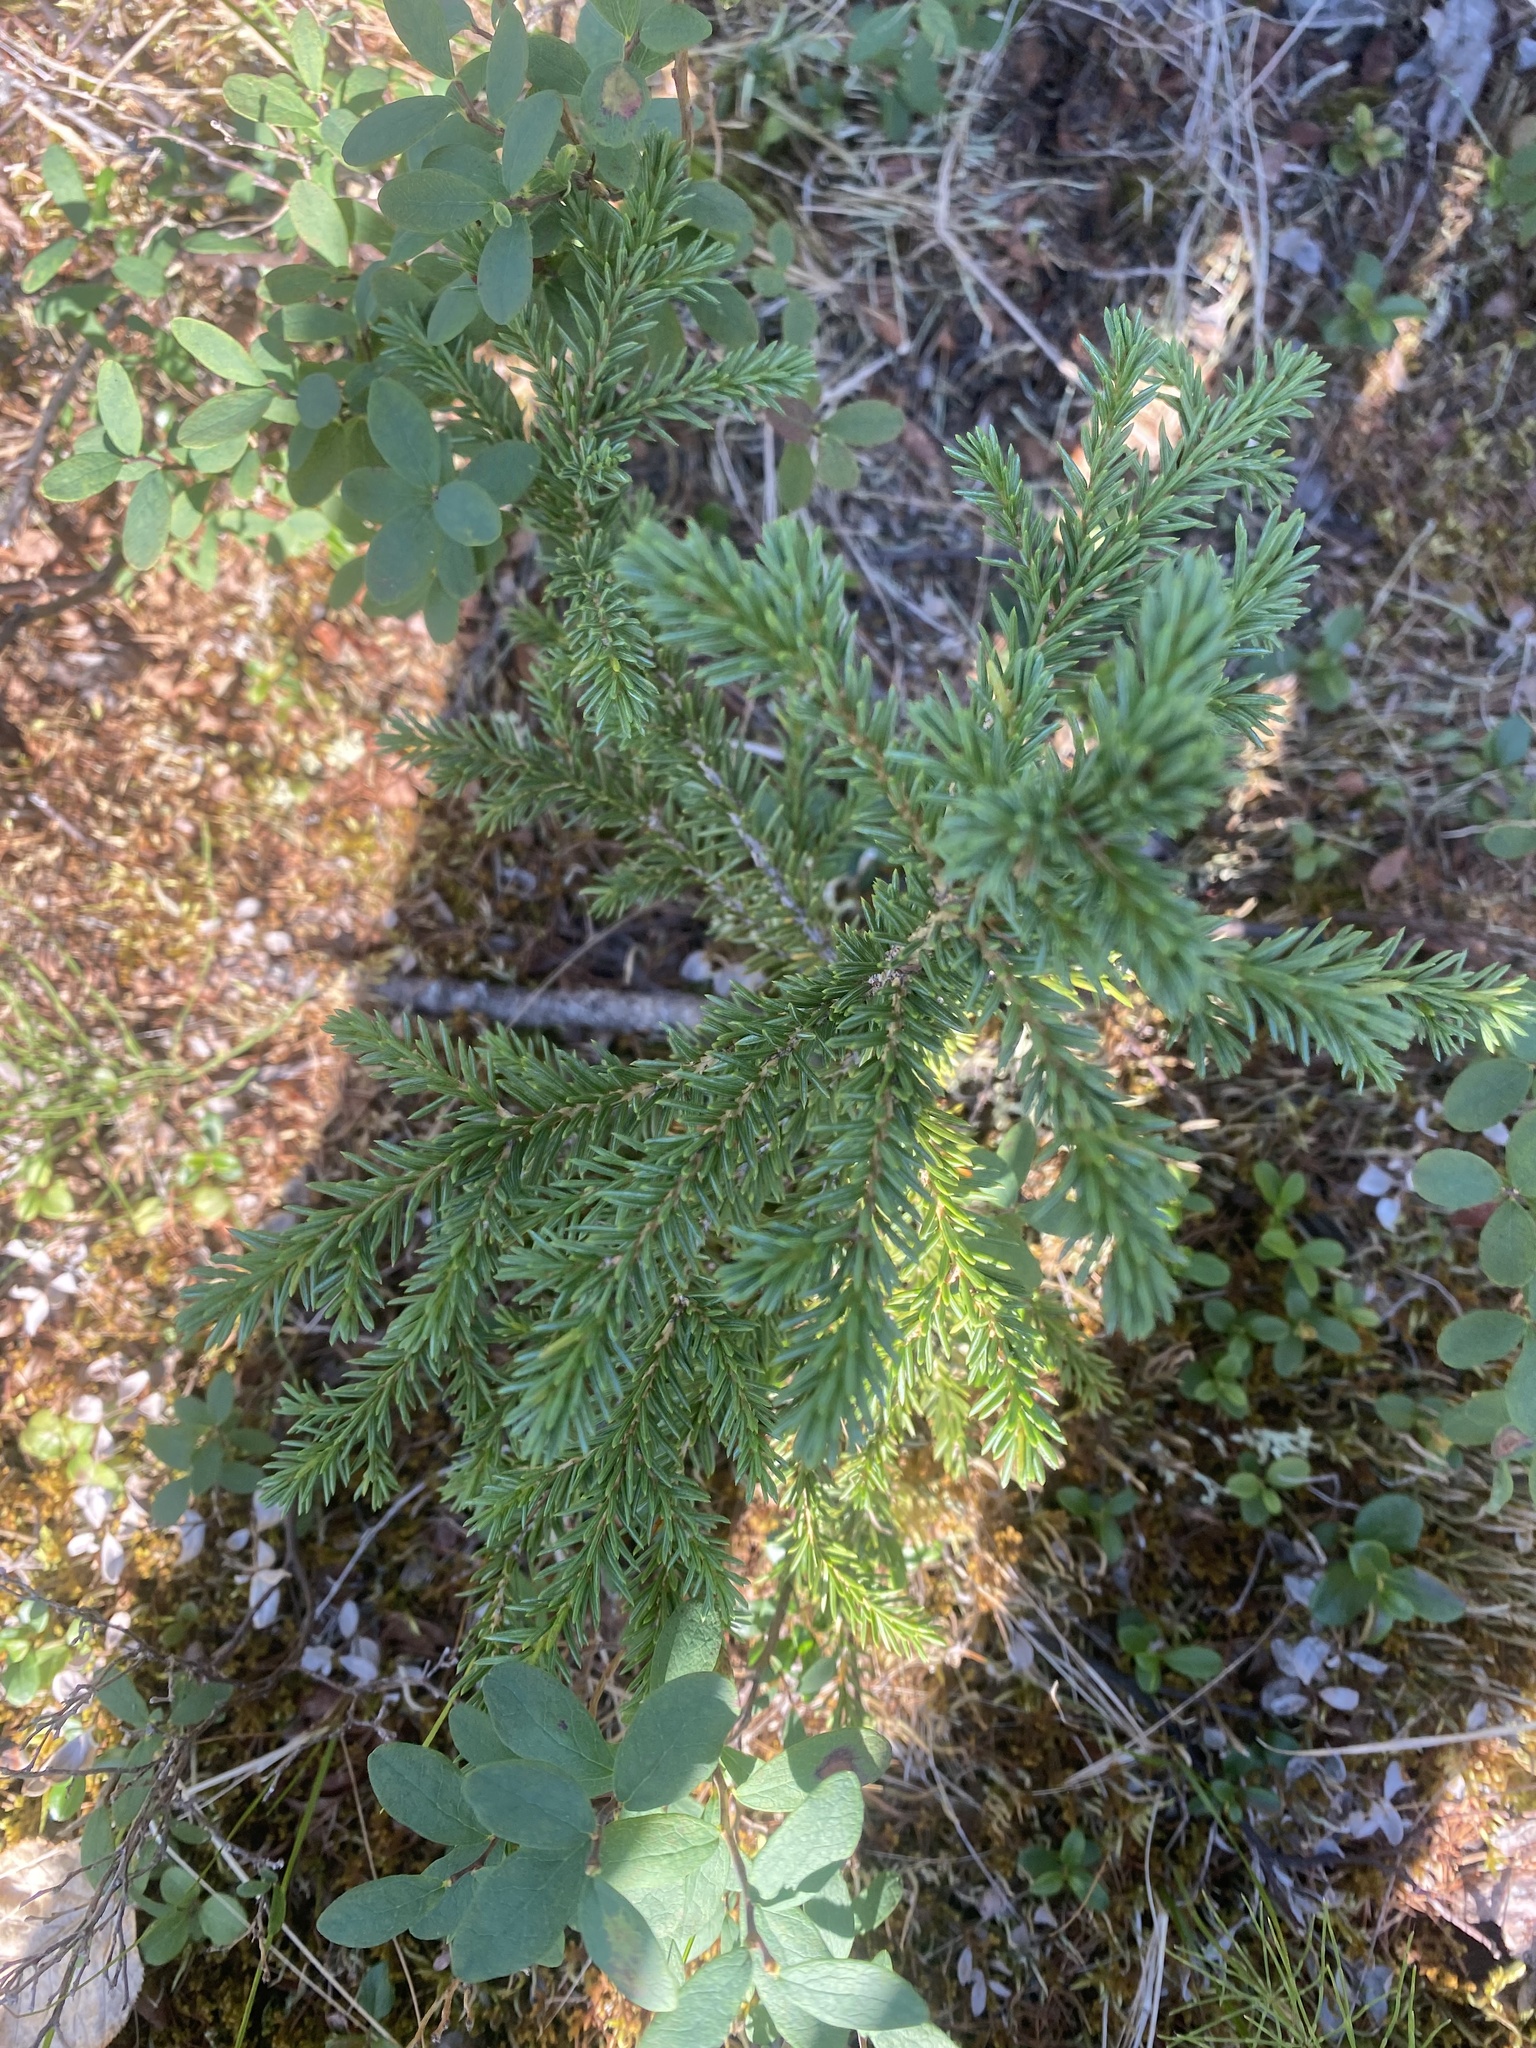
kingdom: Plantae
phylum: Tracheophyta
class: Pinopsida
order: Pinales
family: Pinaceae
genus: Picea
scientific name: Picea obovata
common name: Siberian spruce
